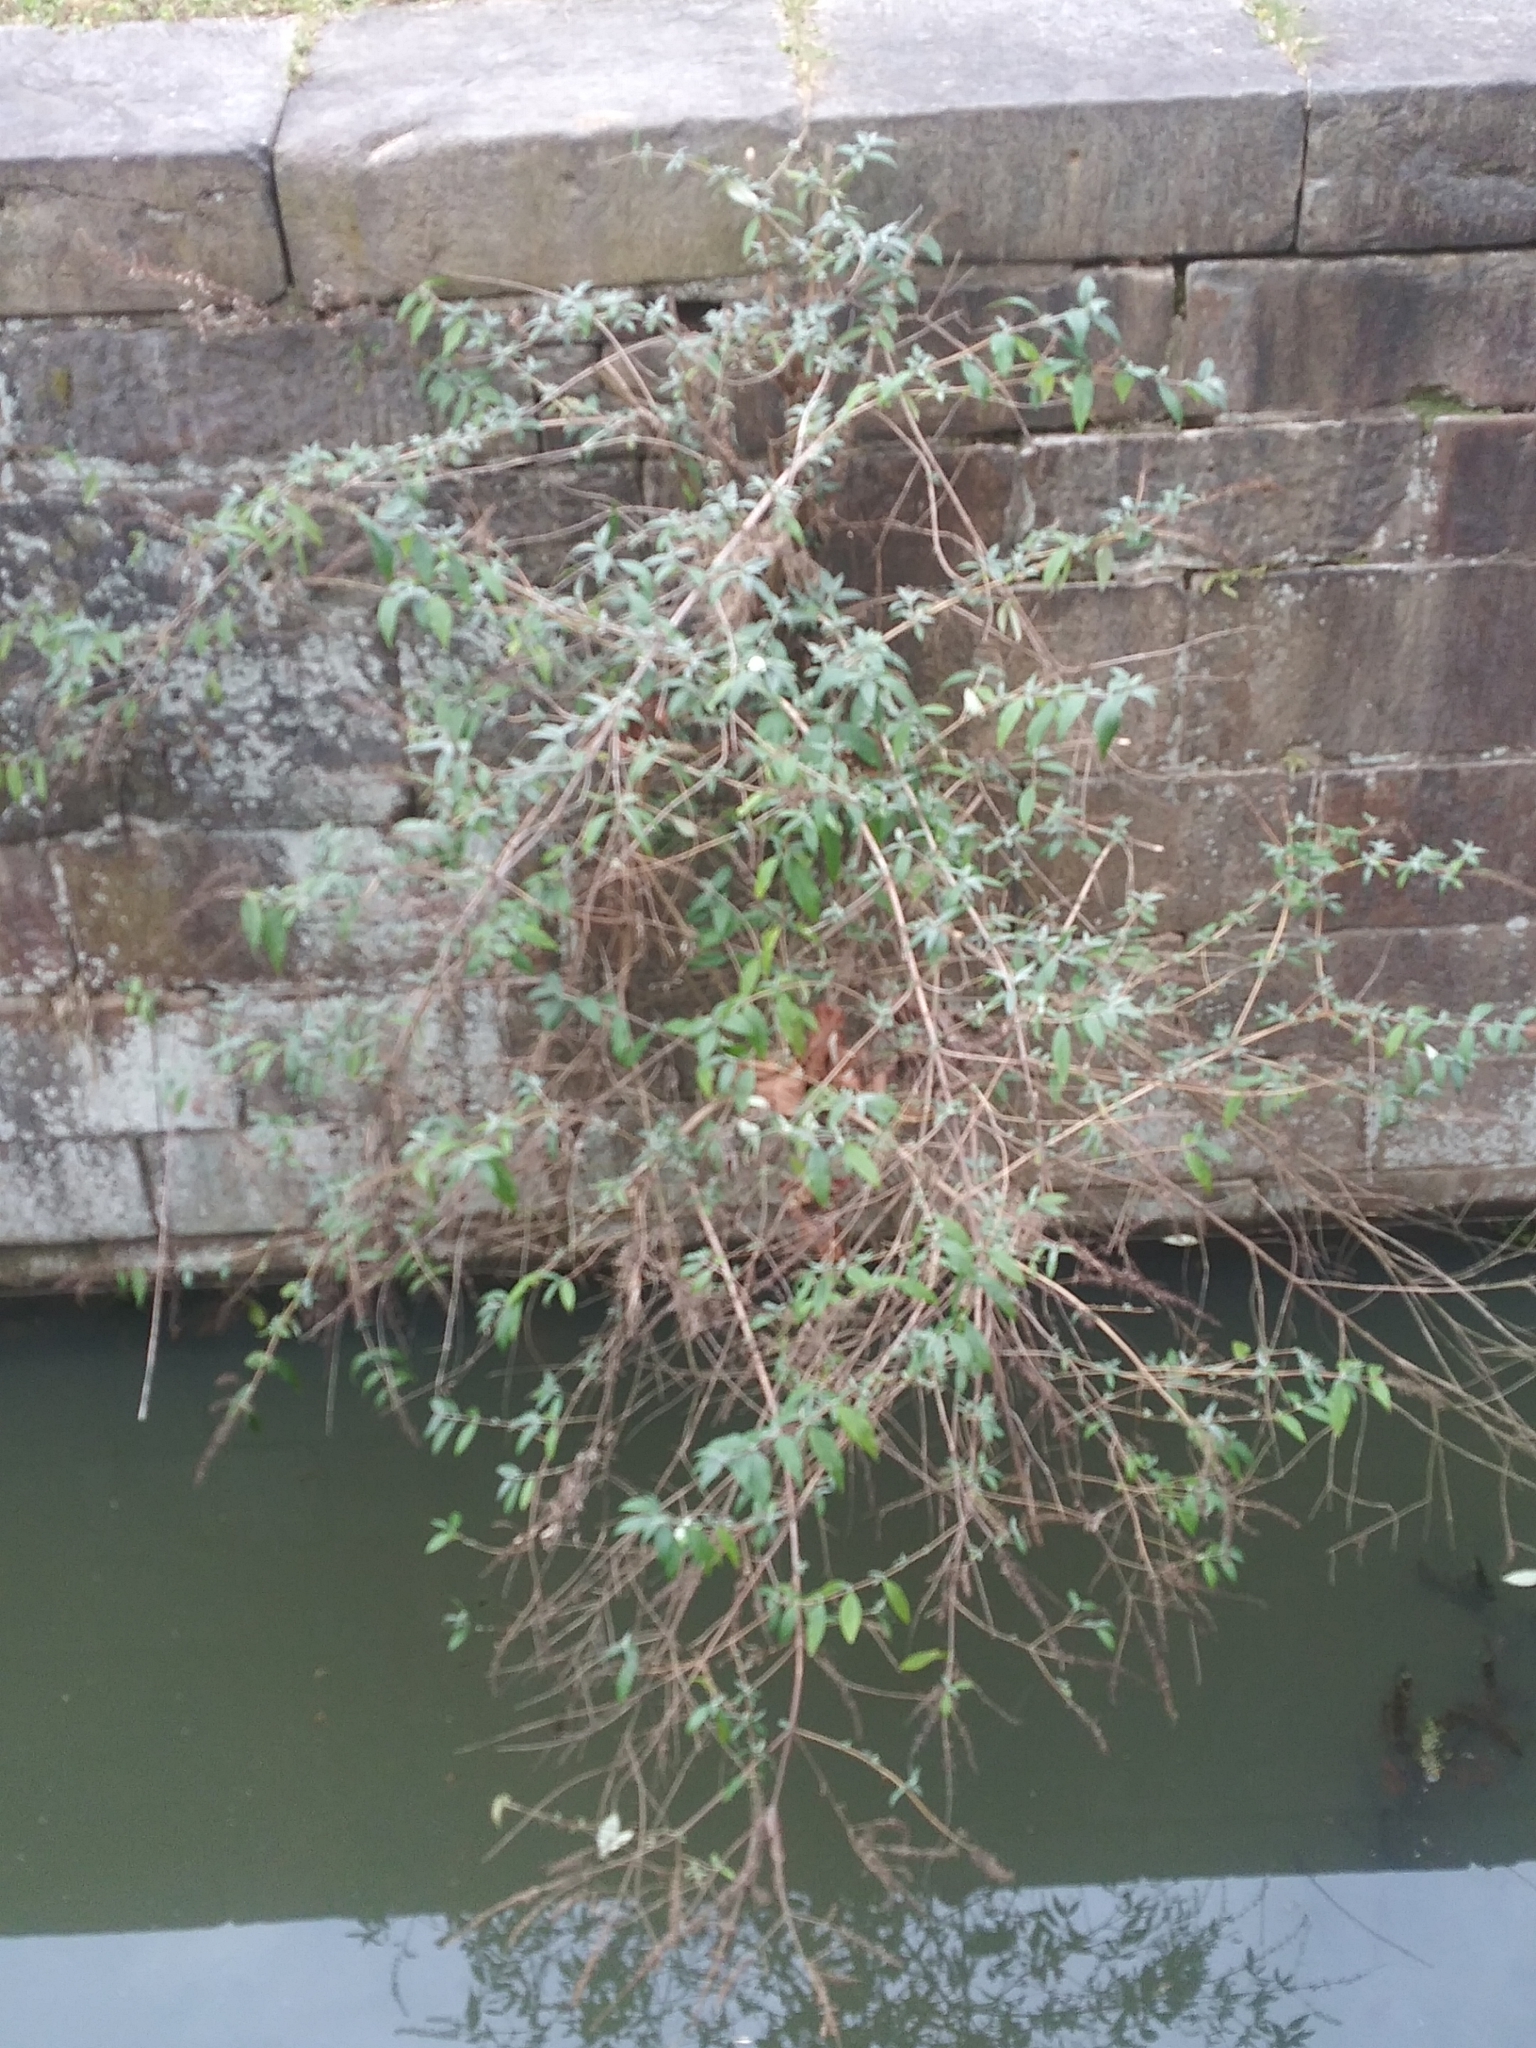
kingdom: Plantae
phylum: Tracheophyta
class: Magnoliopsida
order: Lamiales
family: Scrophulariaceae
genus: Buddleja
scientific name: Buddleja davidii
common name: Butterfly-bush
